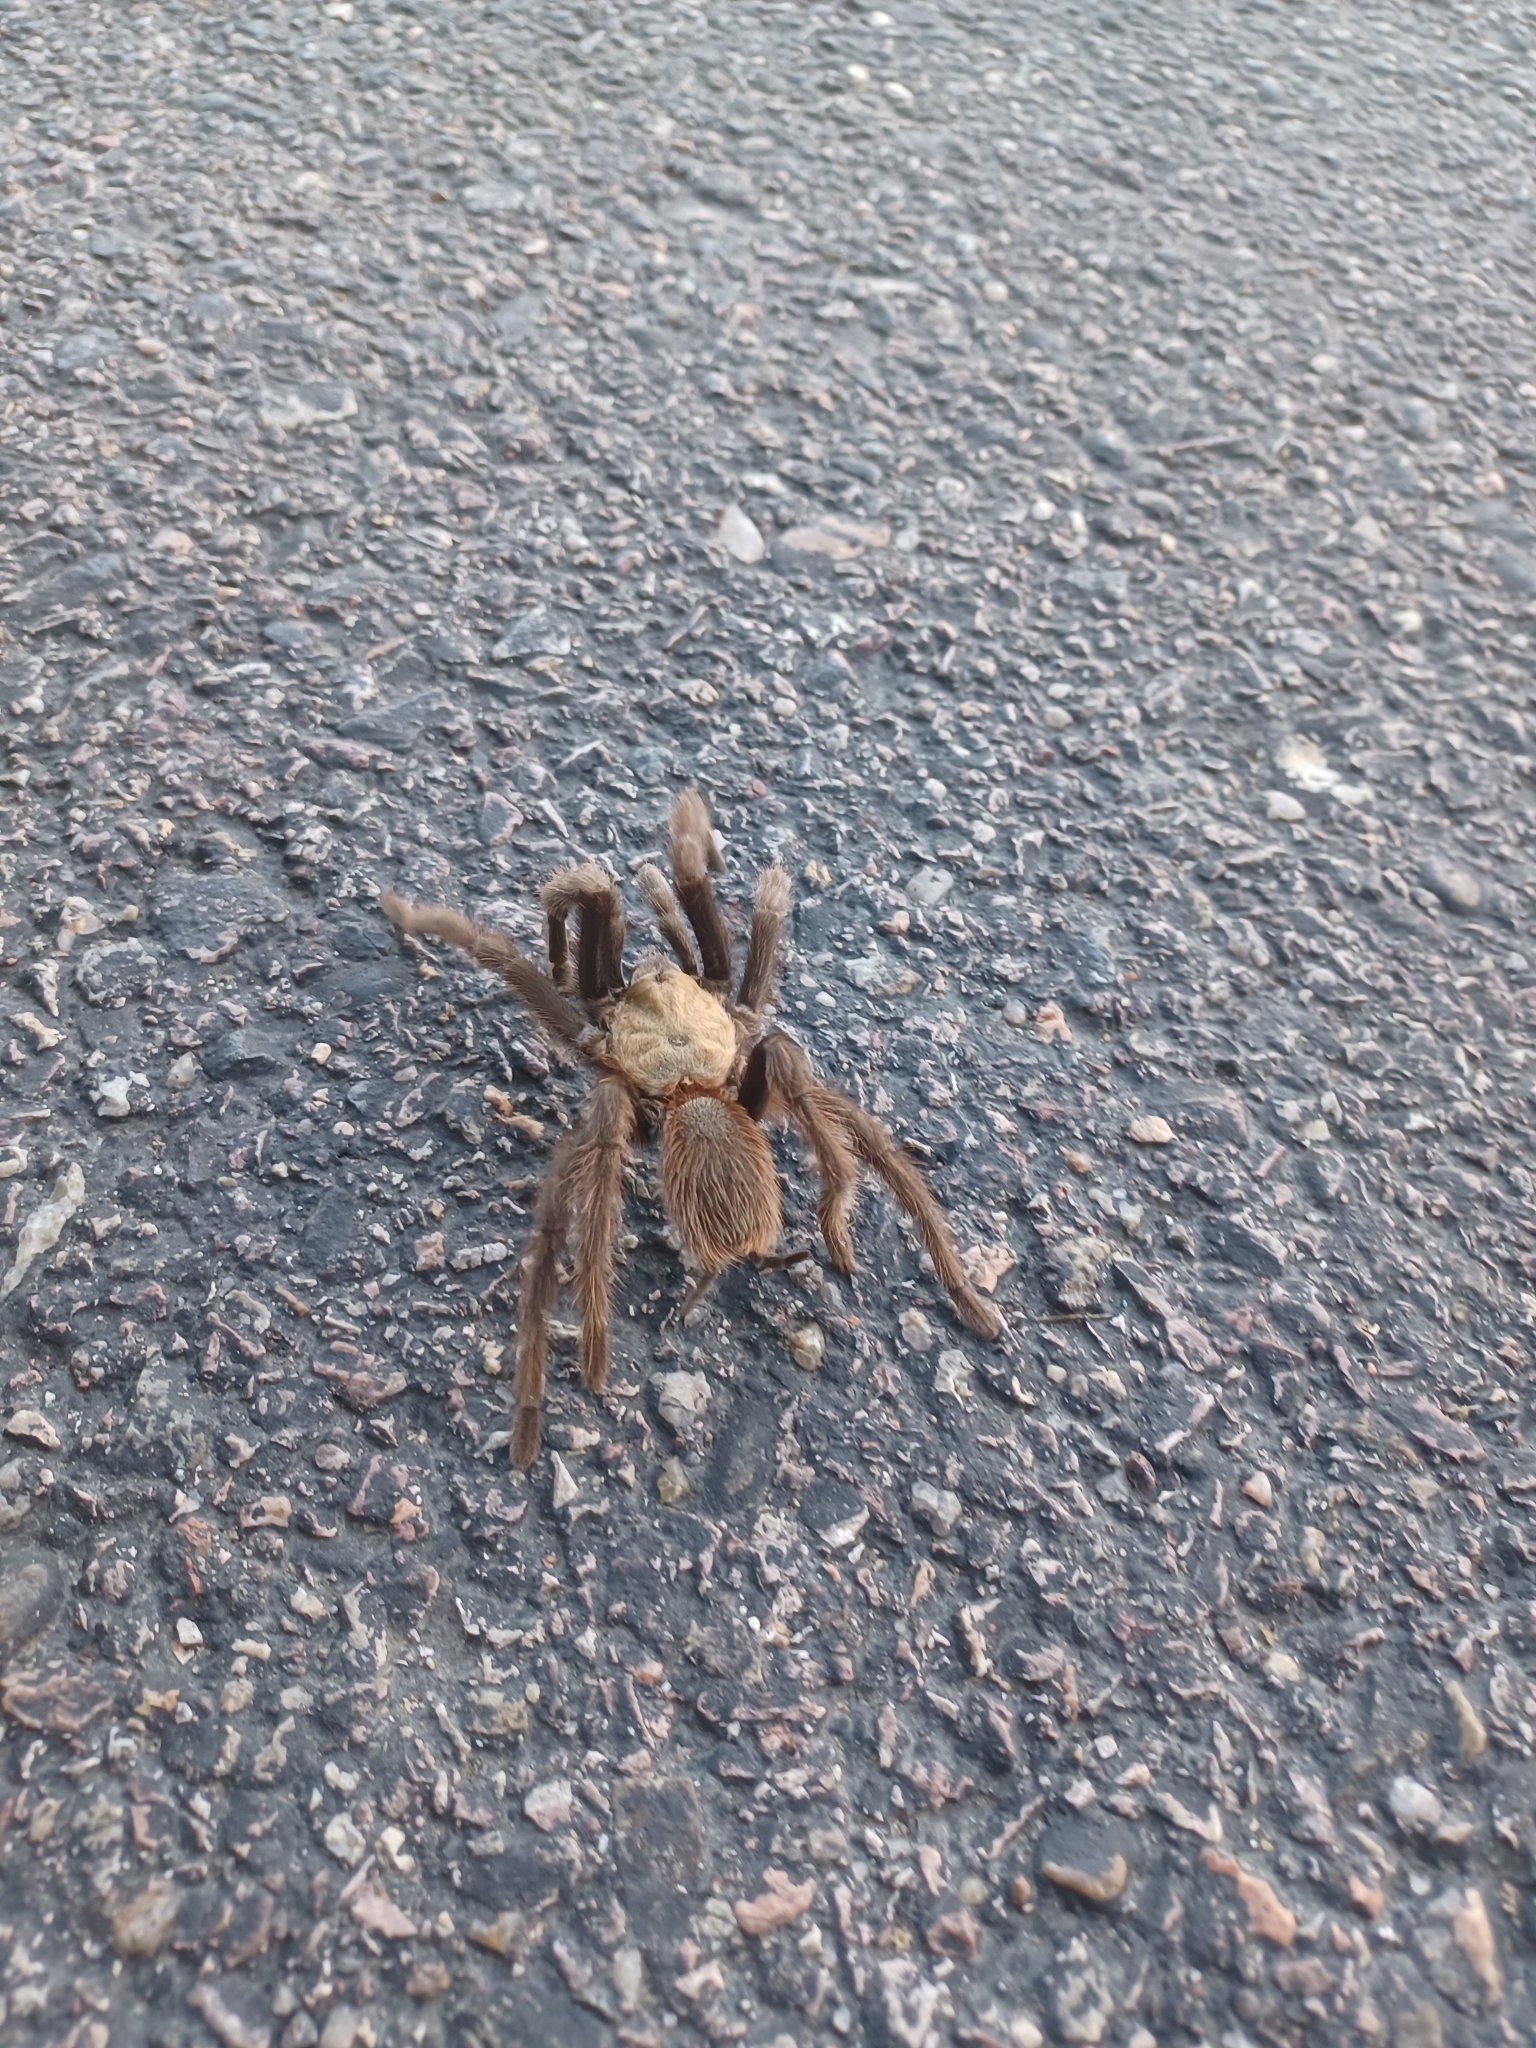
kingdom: Animalia
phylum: Arthropoda
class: Arachnida
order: Araneae
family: Theraphosidae
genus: Aphonopelma
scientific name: Aphonopelma hentzi
